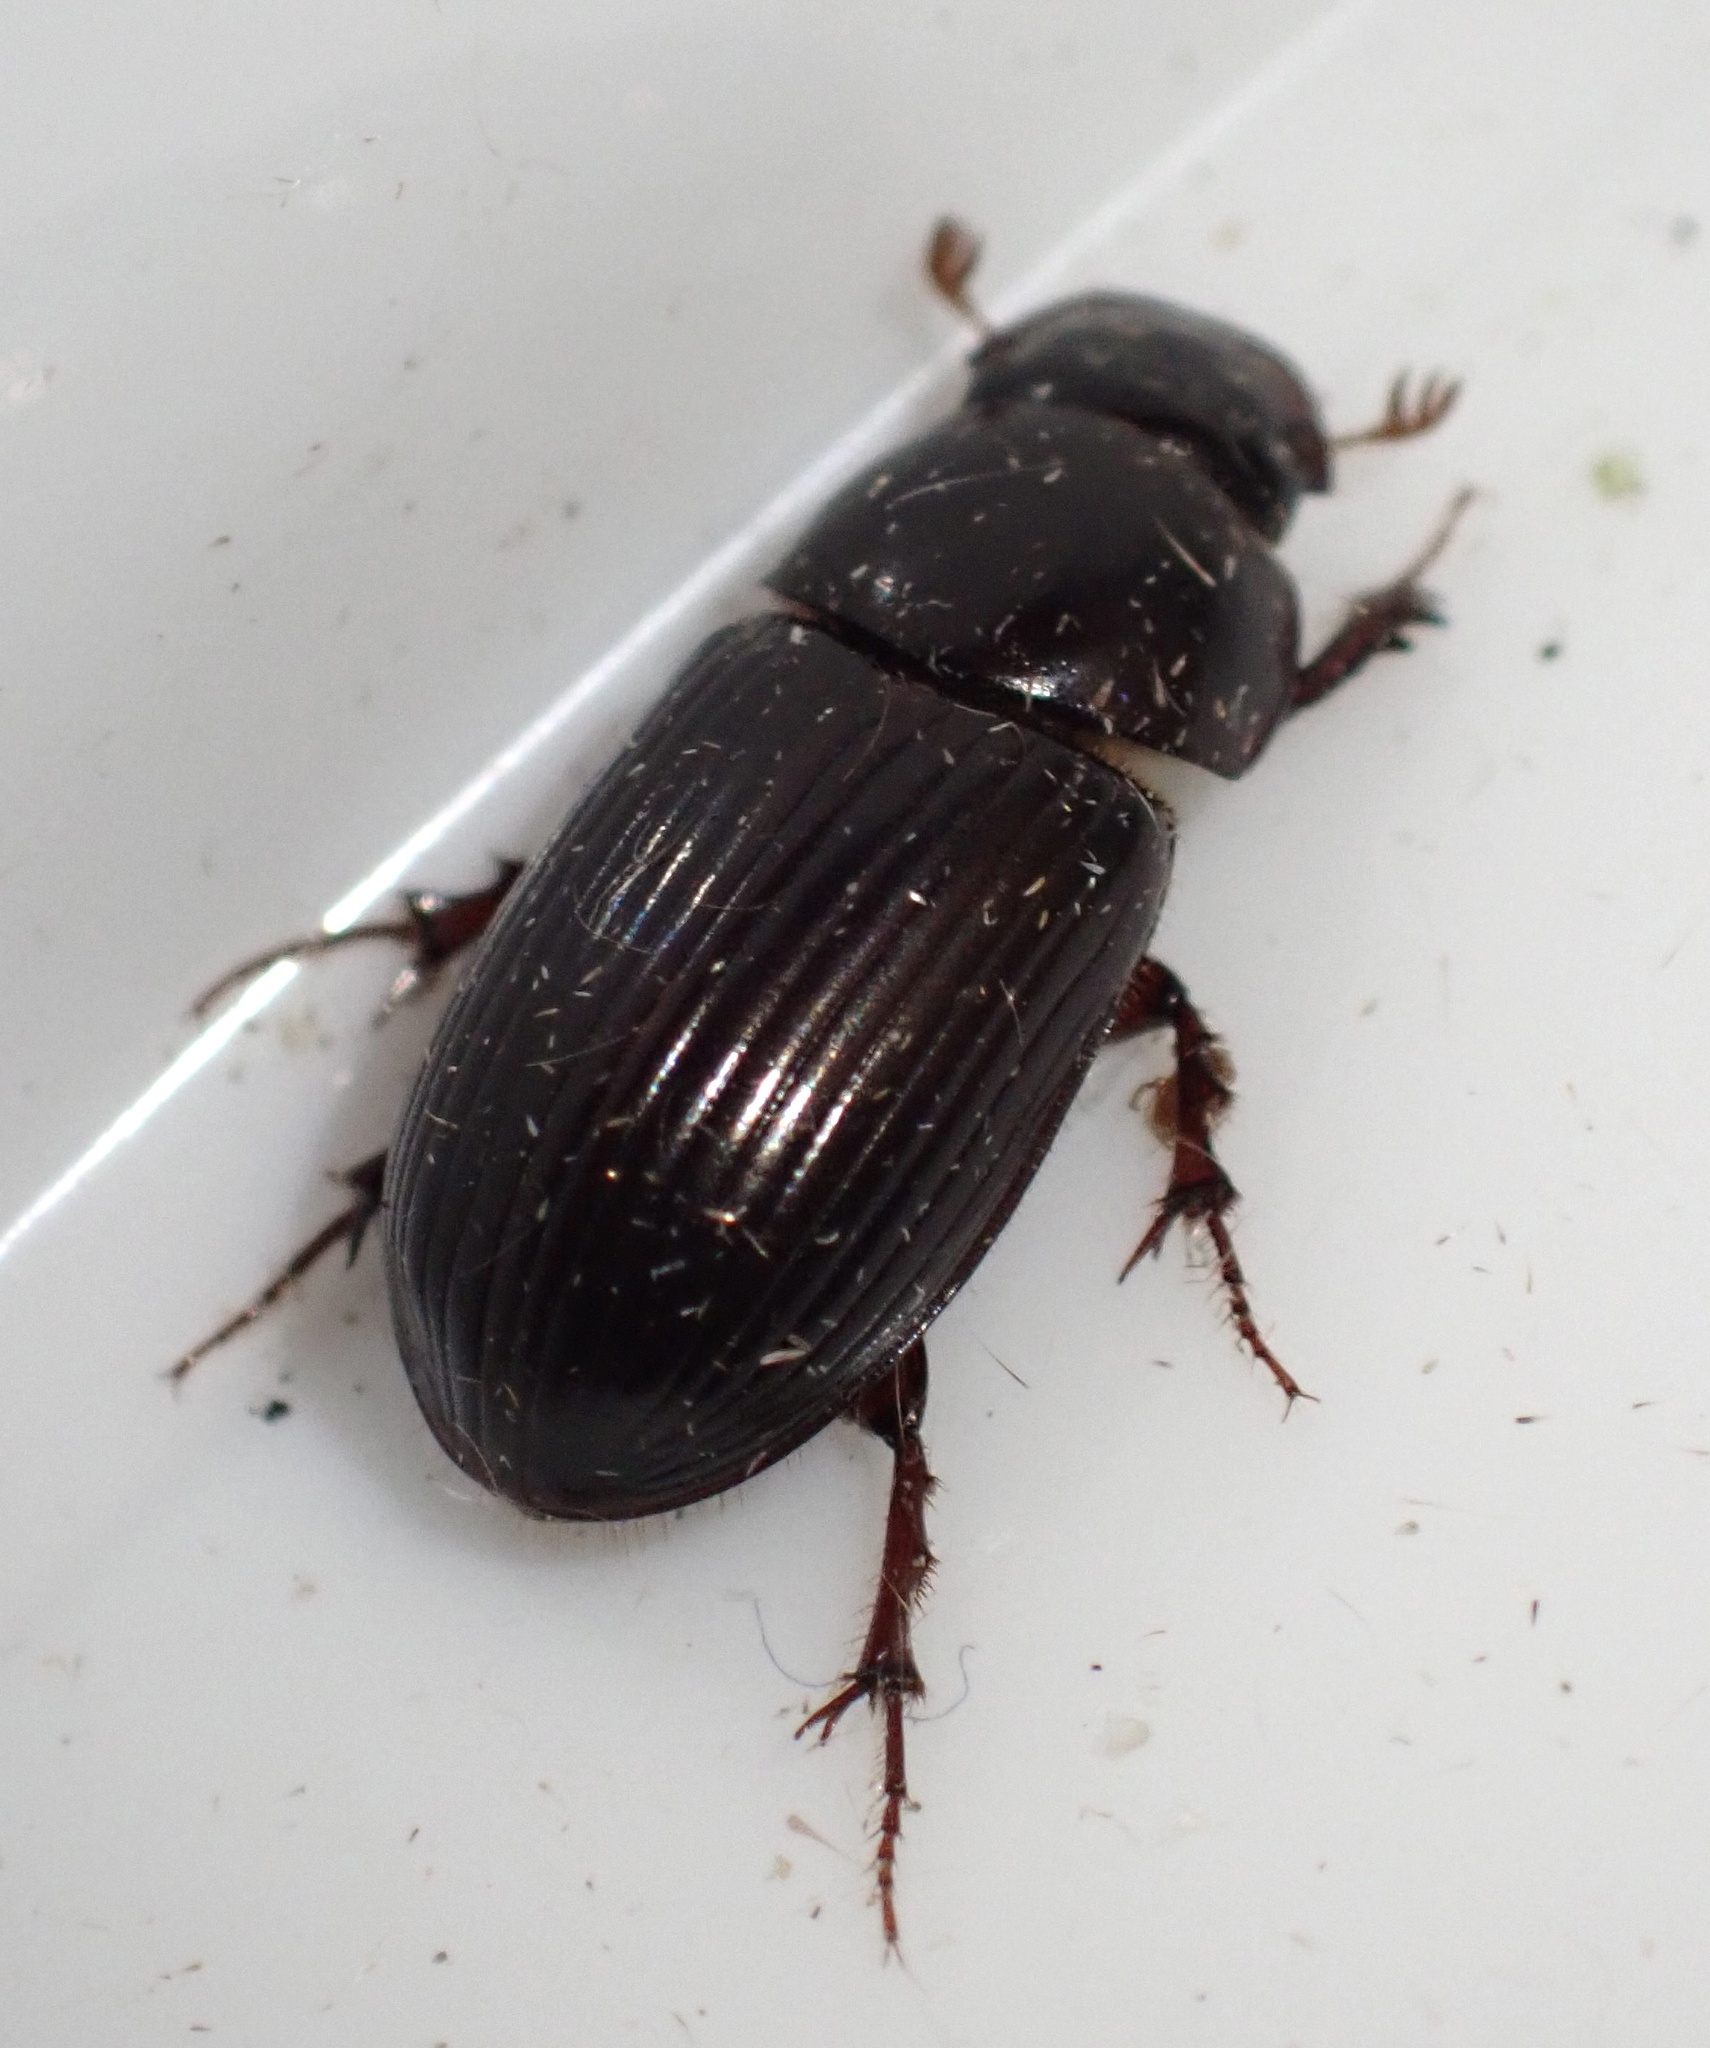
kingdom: Animalia
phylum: Arthropoda
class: Insecta
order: Coleoptera
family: Scarabaeidae
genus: Acrossus
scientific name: Acrossus rufipes
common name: Night-flying dung beetle
